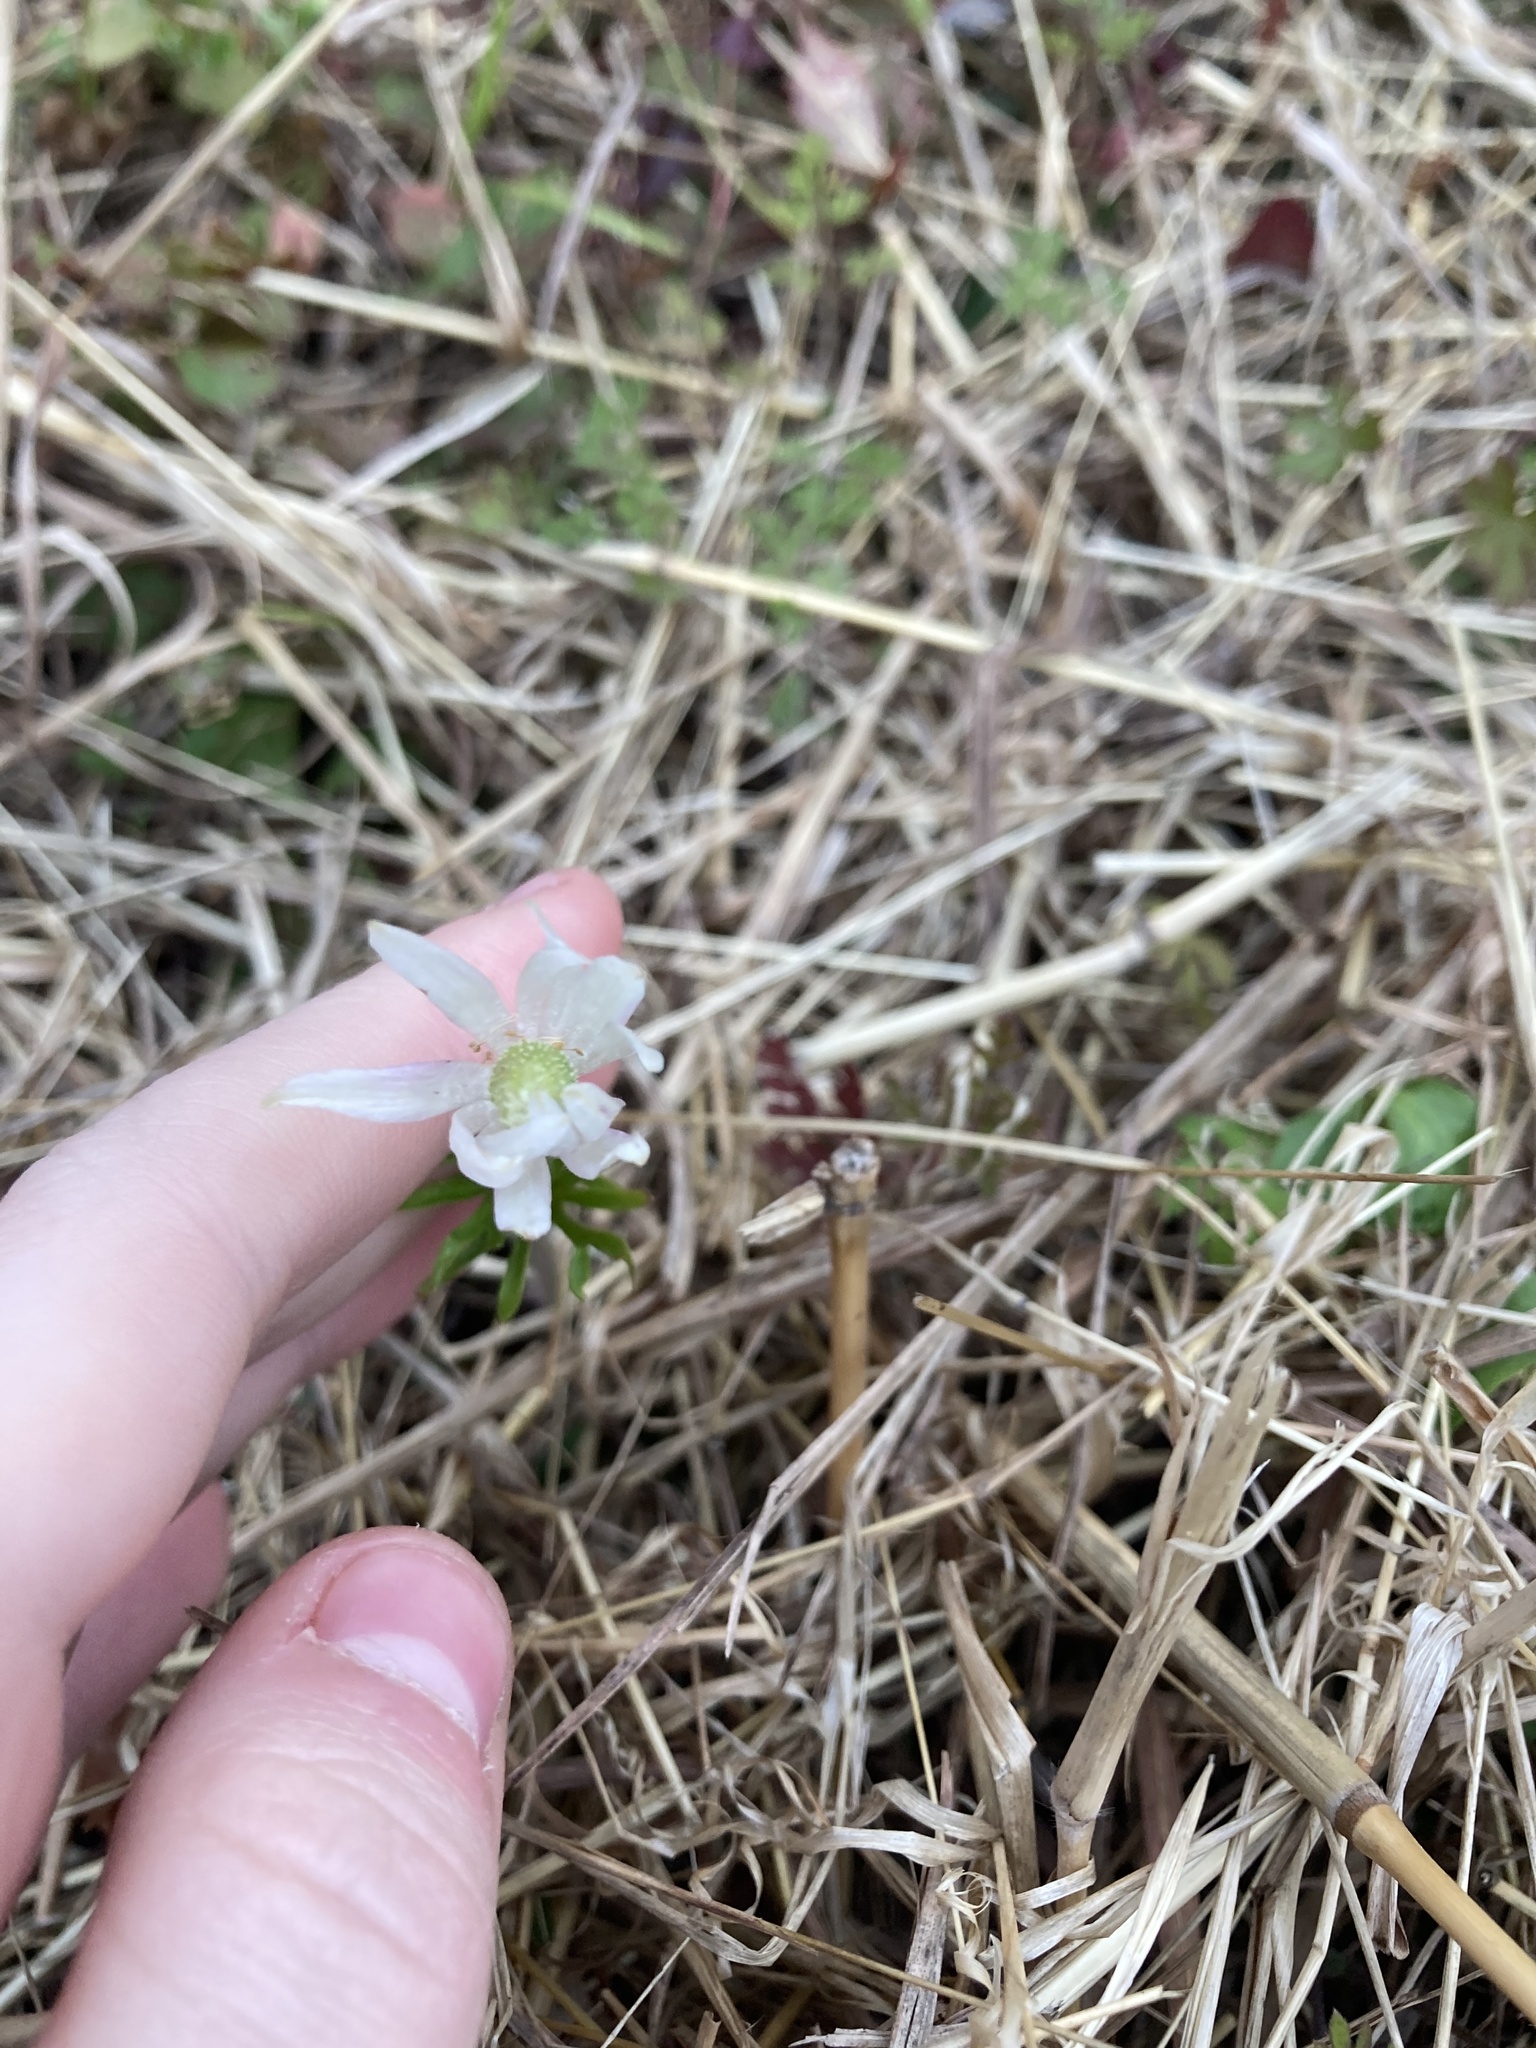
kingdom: Plantae
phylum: Tracheophyta
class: Magnoliopsida
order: Ranunculales
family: Ranunculaceae
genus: Anemone
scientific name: Anemone berlandieri
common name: Ten-petal anemone
